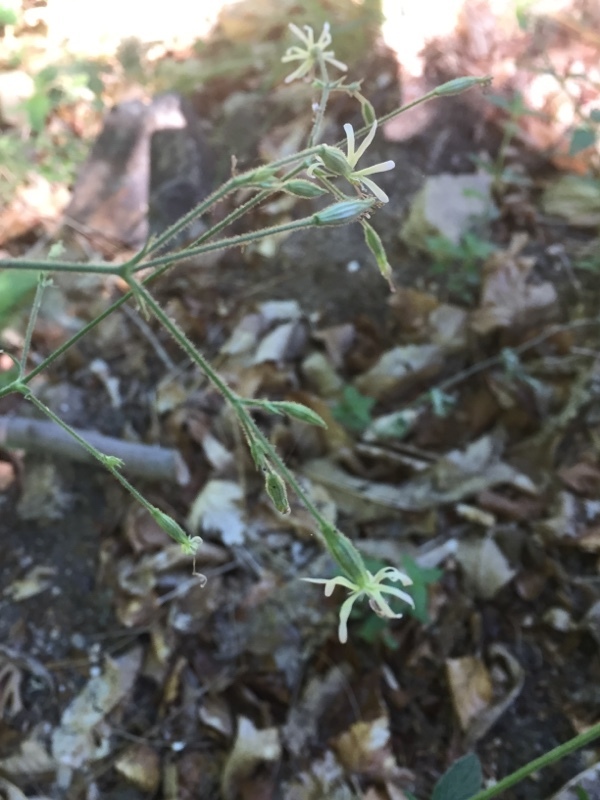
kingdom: Plantae
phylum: Tracheophyta
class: Magnoliopsida
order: Caryophyllales
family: Caryophyllaceae
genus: Silene
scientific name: Silene nutans
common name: Nottingham catchfly
